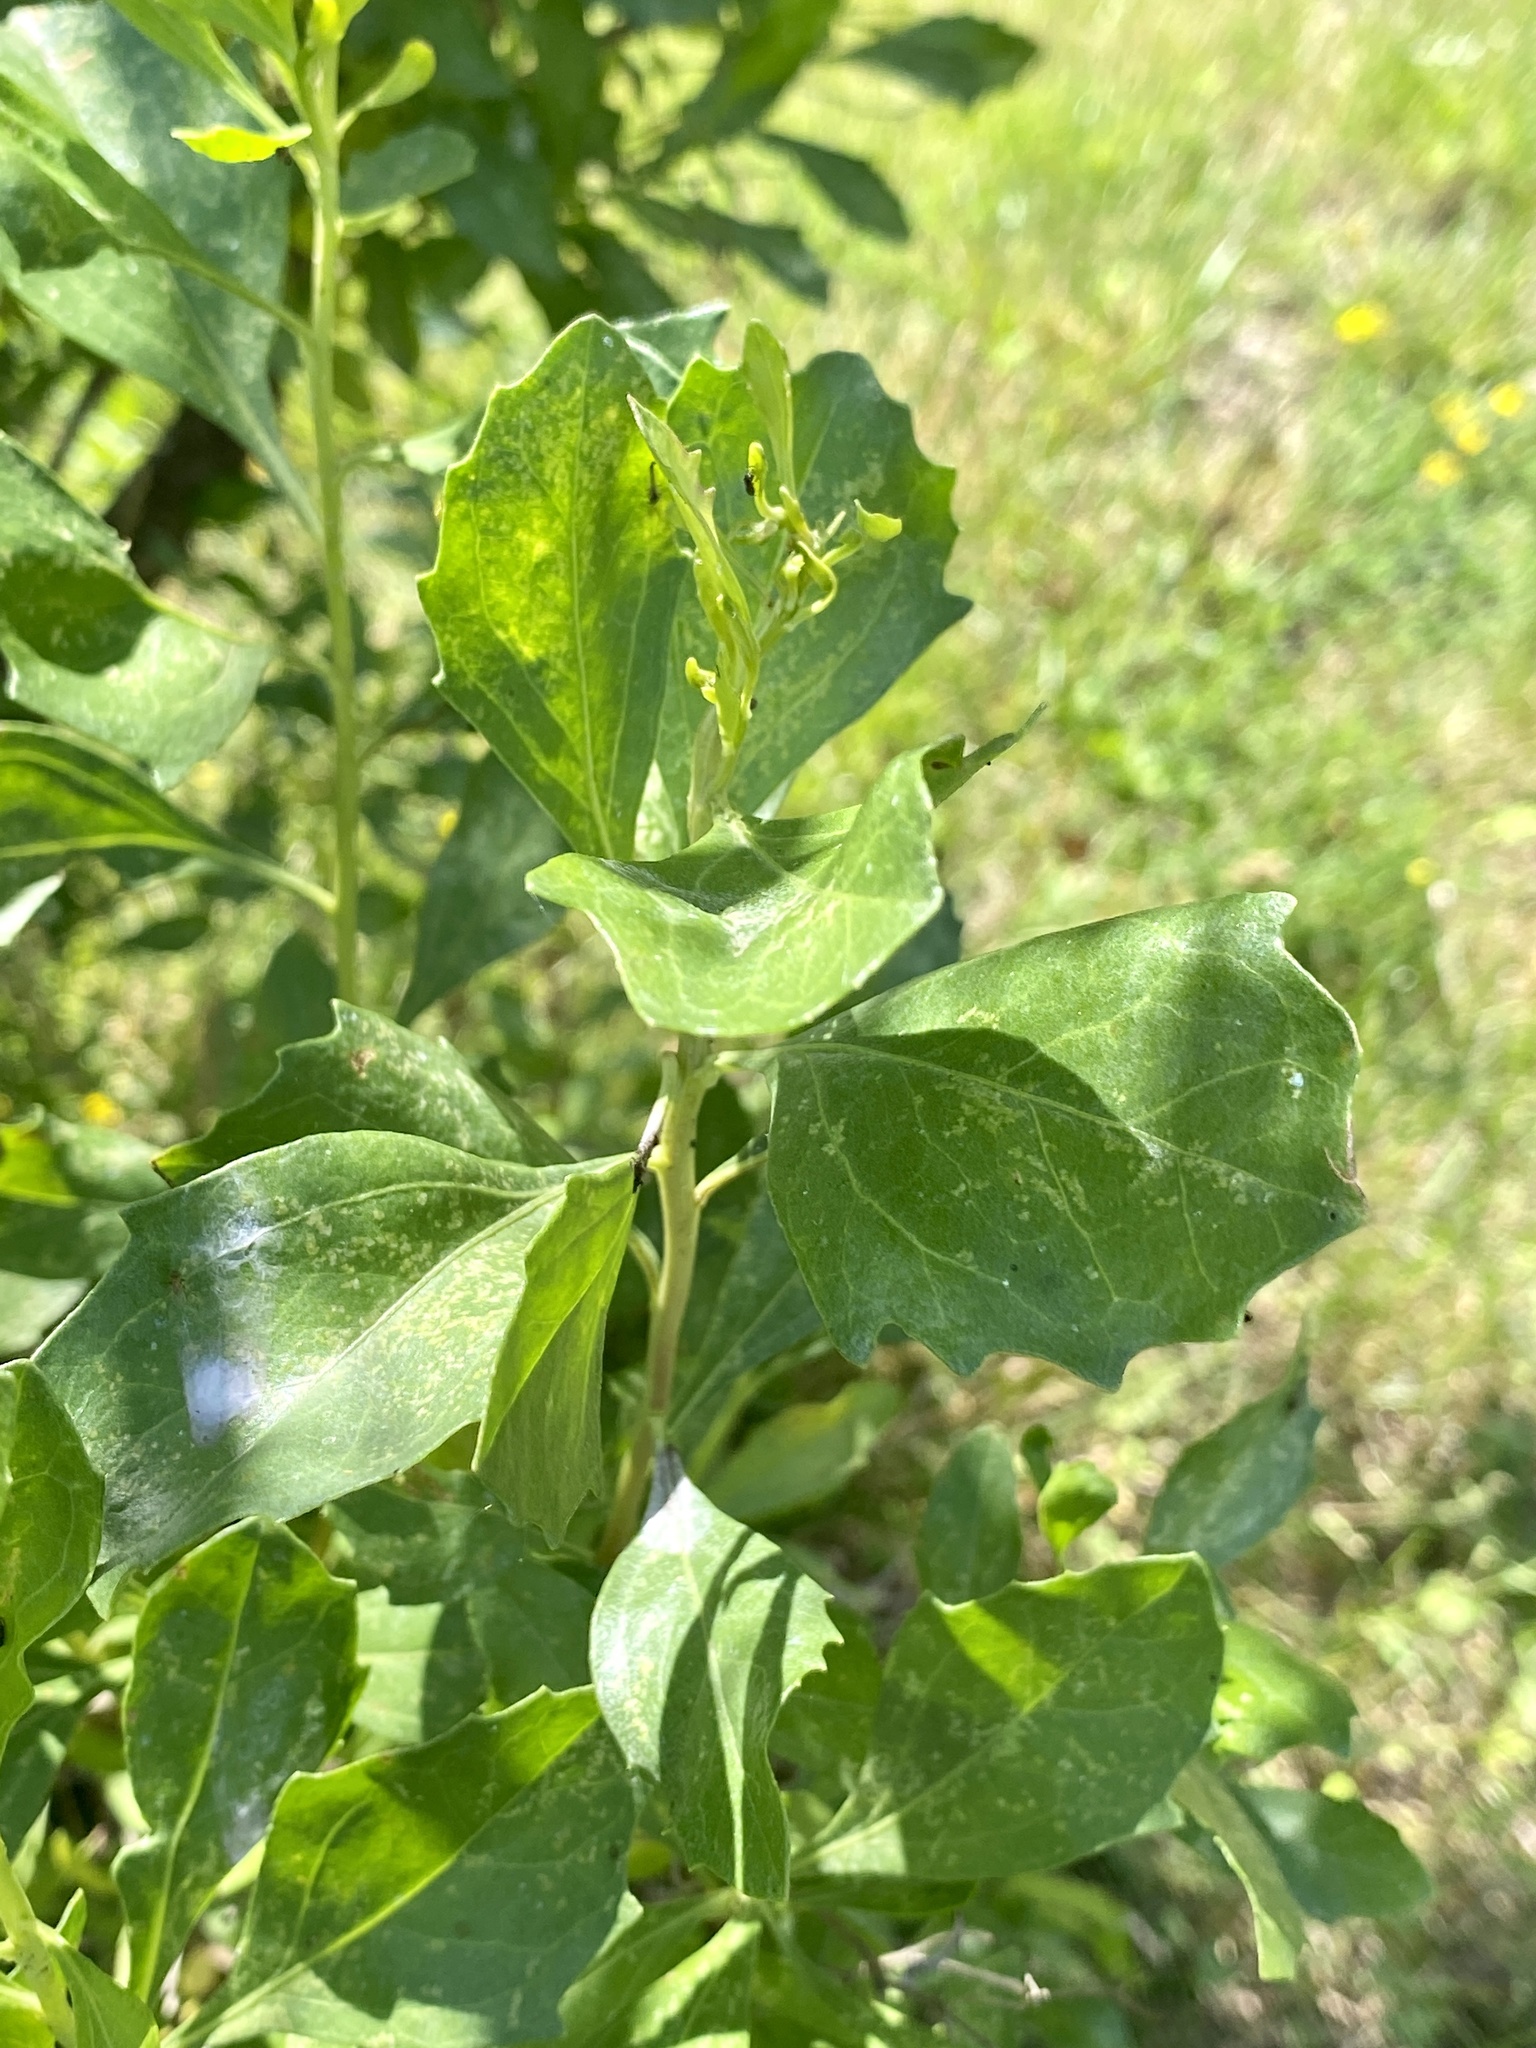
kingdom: Plantae
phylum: Tracheophyta
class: Magnoliopsida
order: Asterales
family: Asteraceae
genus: Baccharis
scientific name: Baccharis halimifolia
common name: Eastern baccharis
